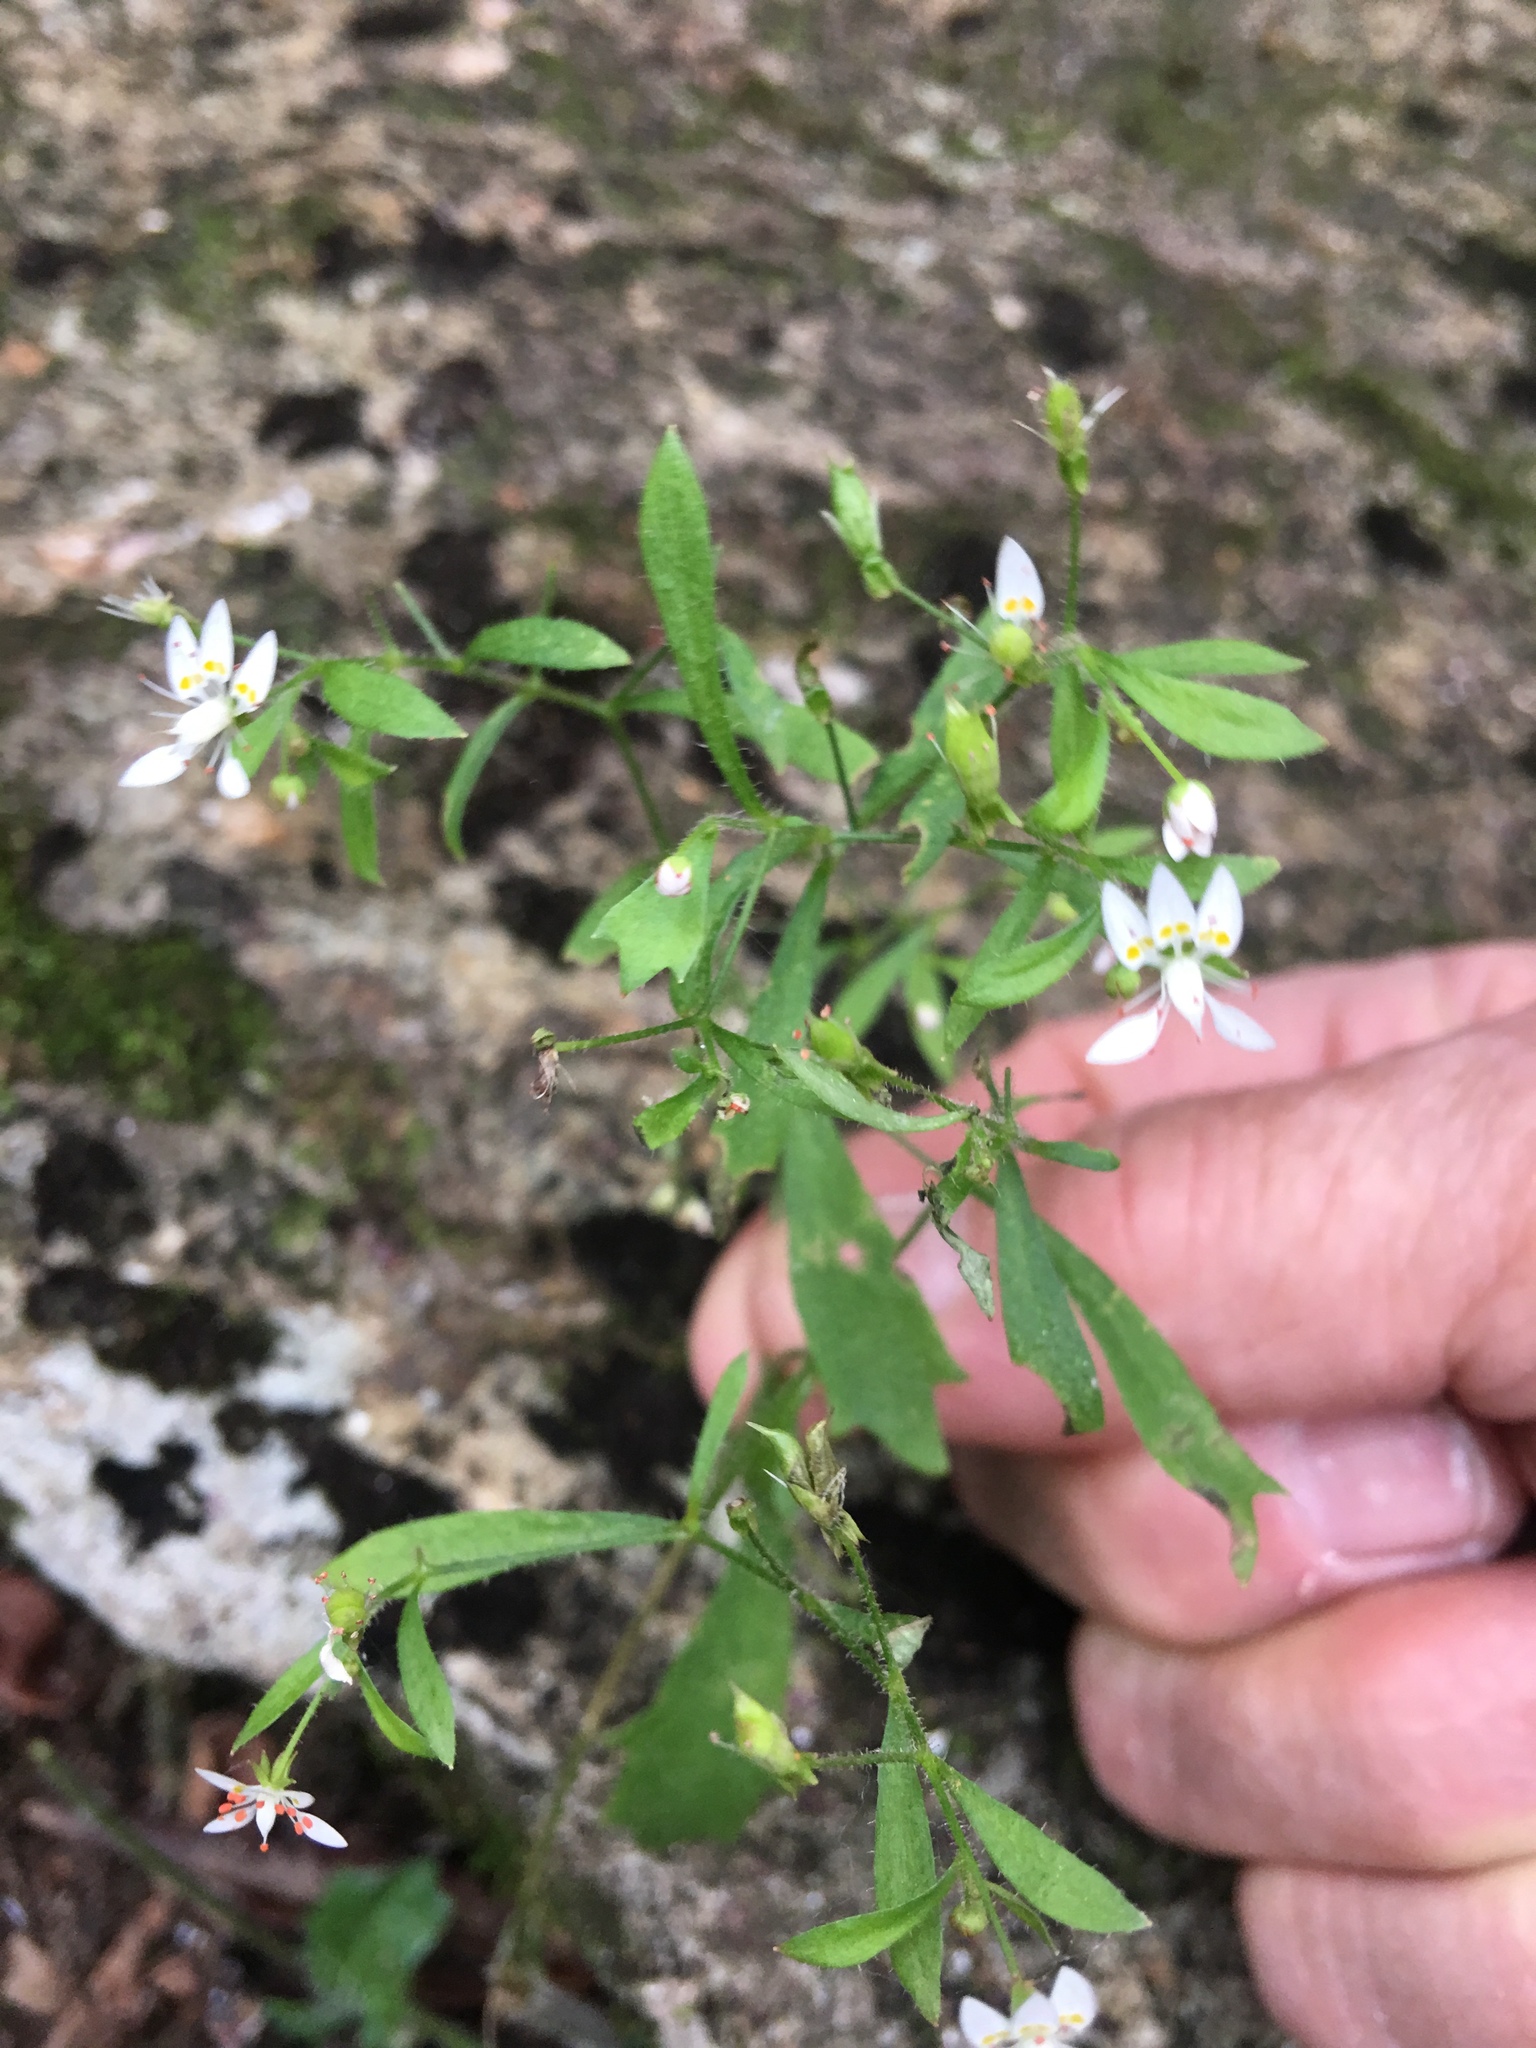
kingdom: Plantae
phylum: Tracheophyta
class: Magnoliopsida
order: Saxifragales
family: Saxifragaceae
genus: Micranthes
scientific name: Micranthes petiolaris
